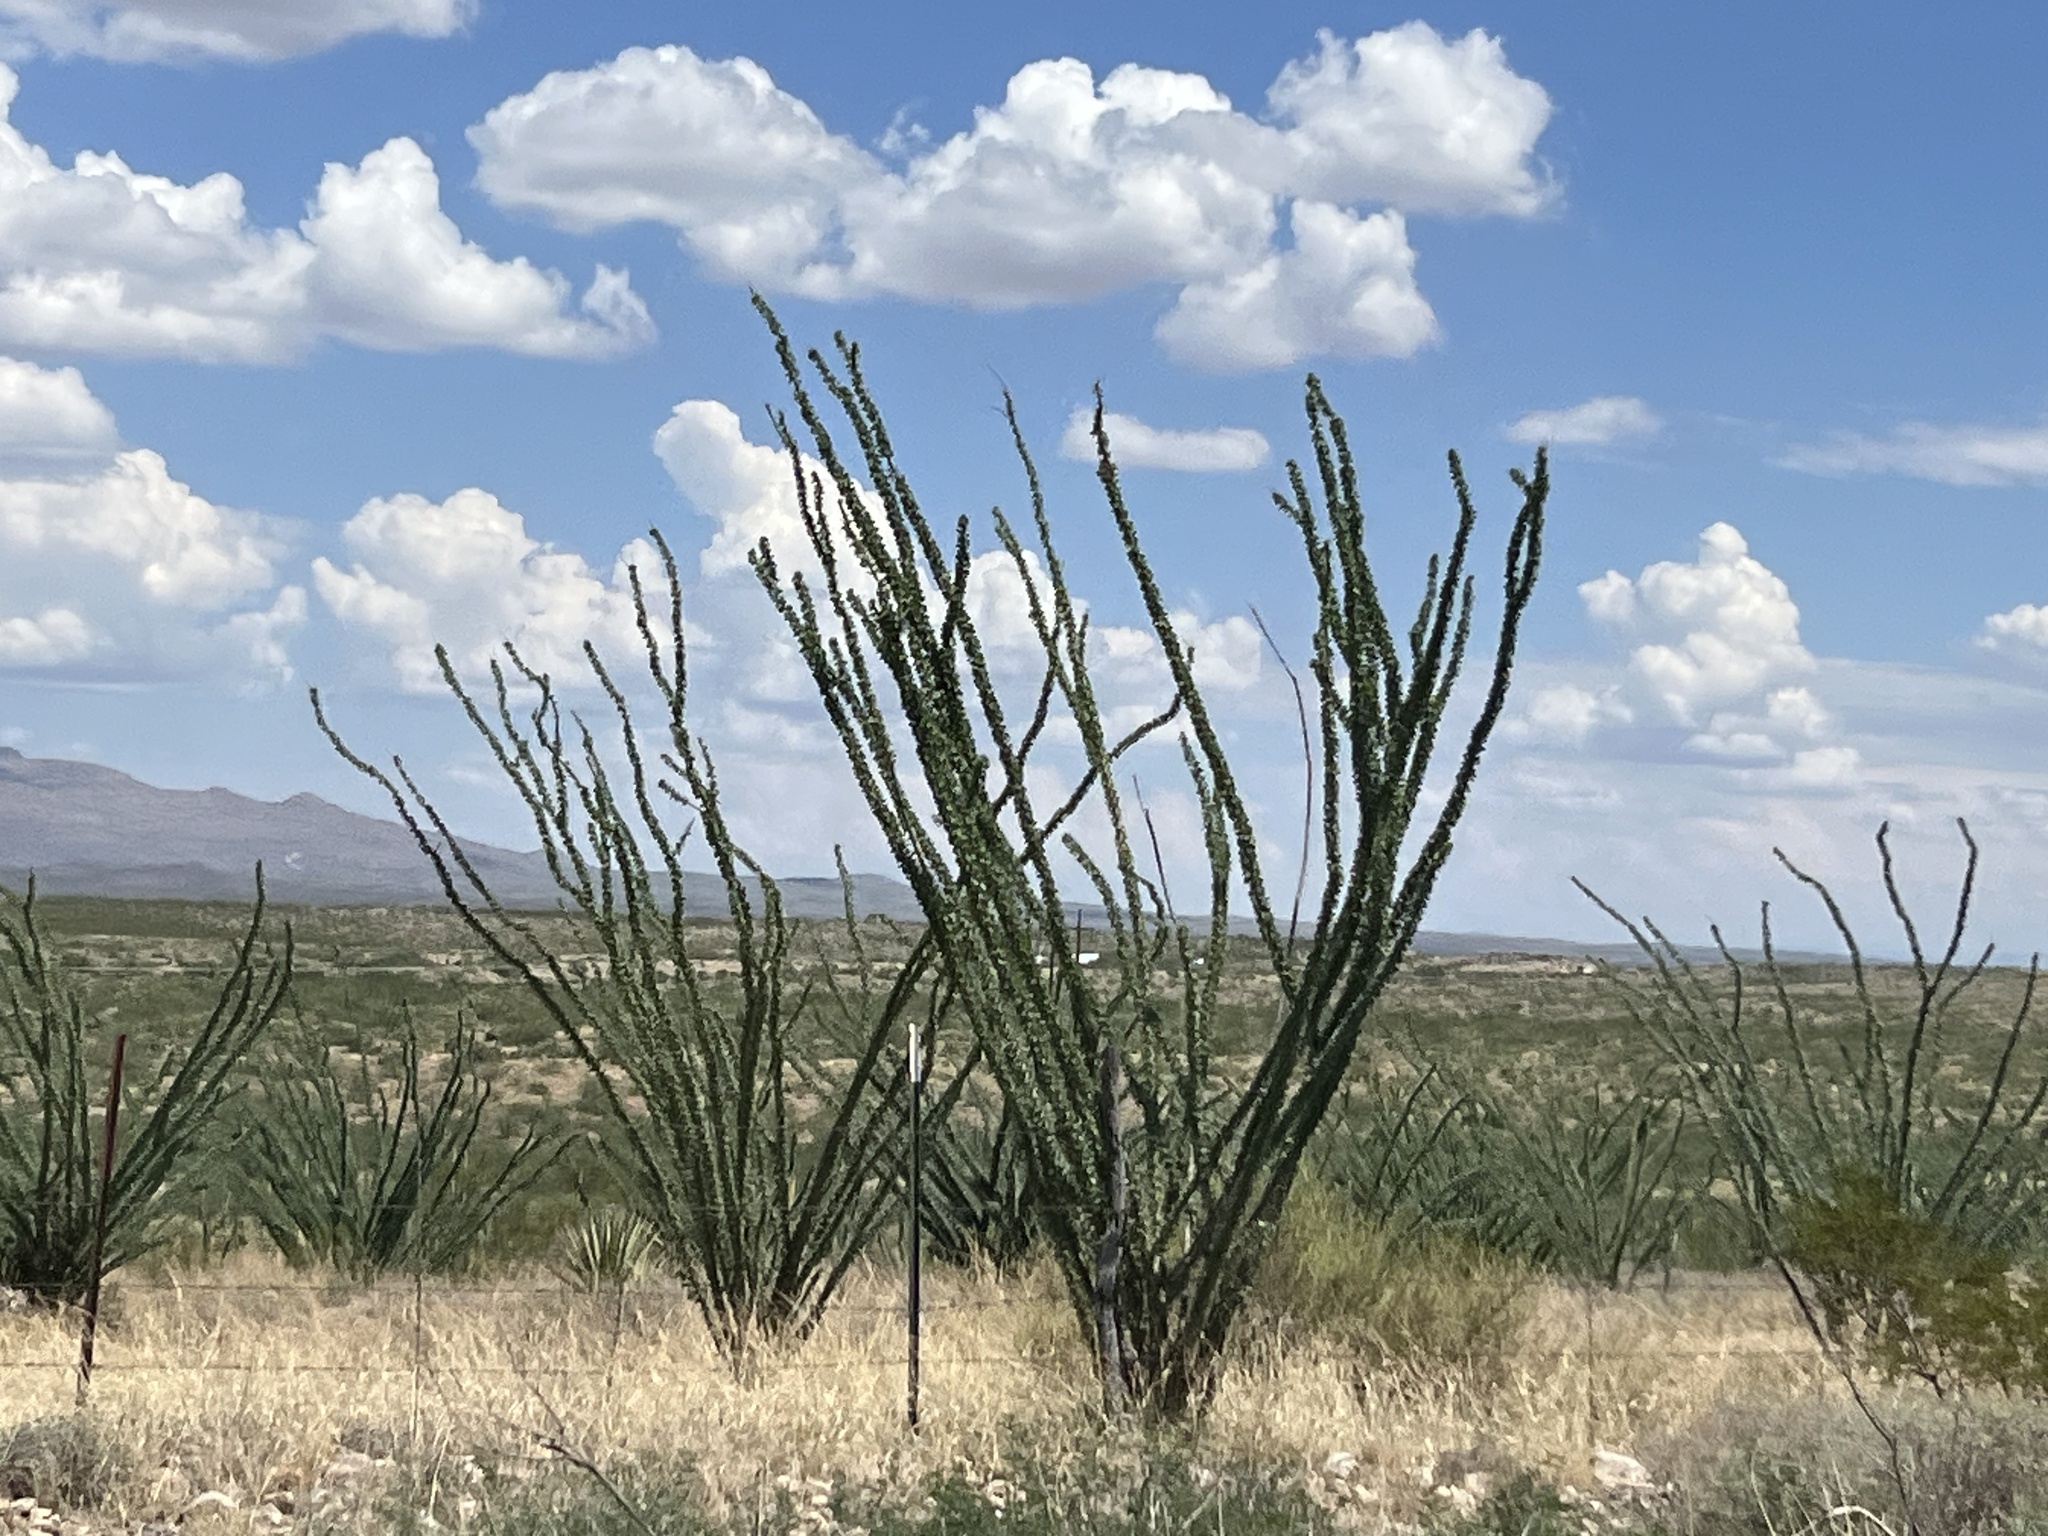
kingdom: Plantae
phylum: Tracheophyta
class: Magnoliopsida
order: Ericales
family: Fouquieriaceae
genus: Fouquieria
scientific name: Fouquieria splendens
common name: Vine-cactus
